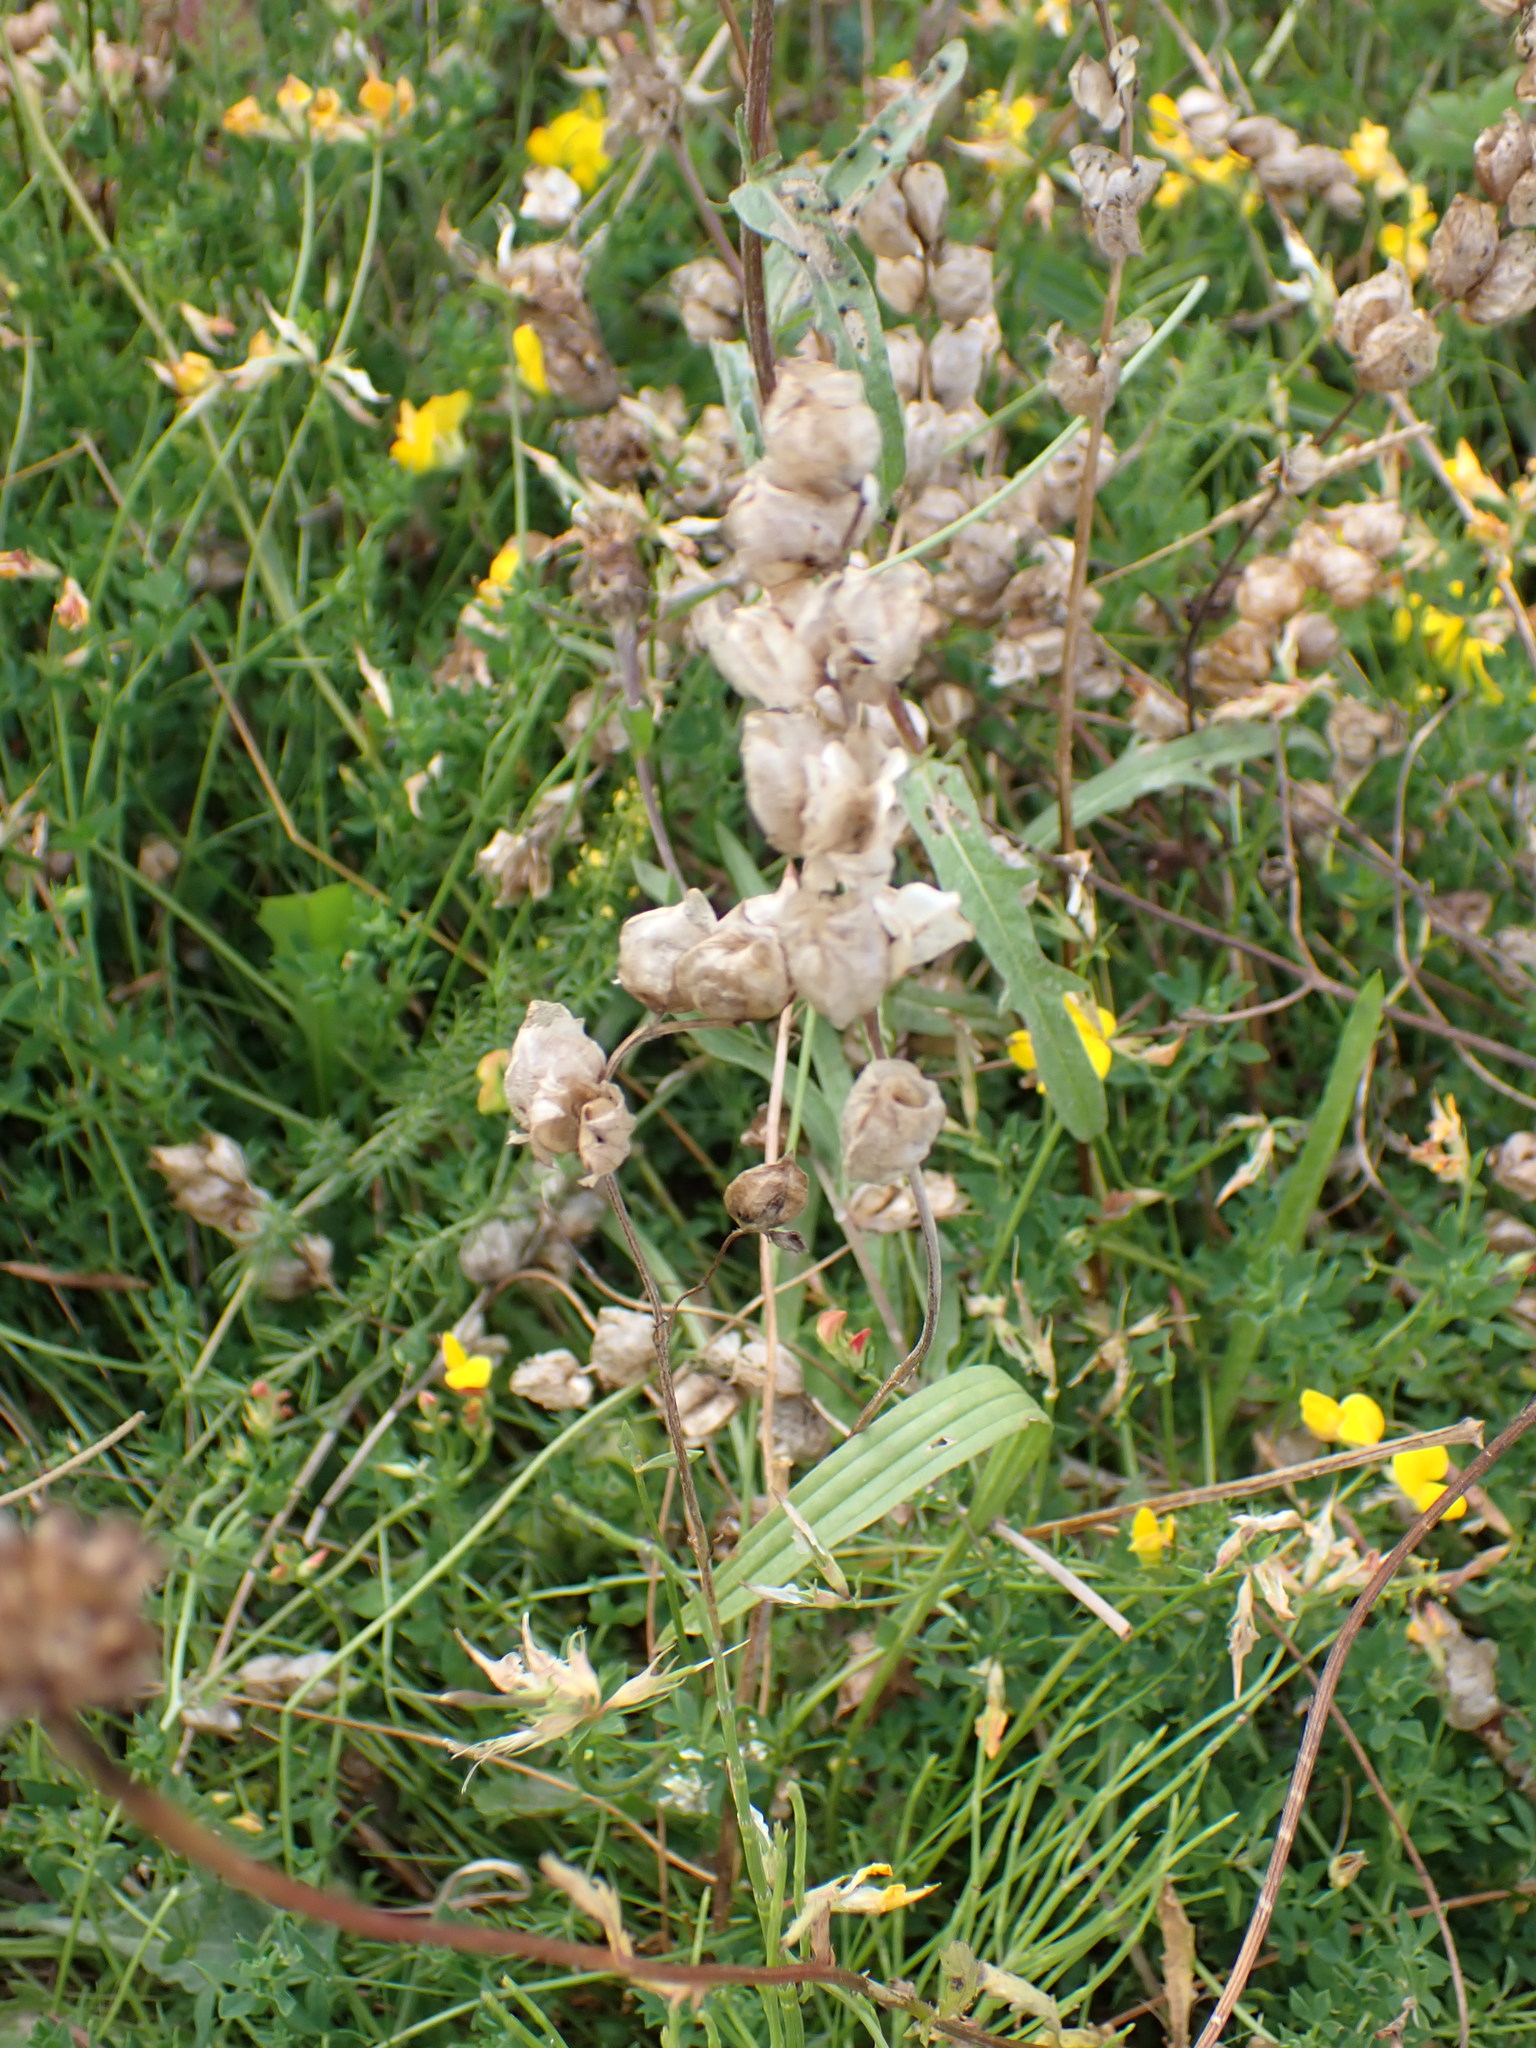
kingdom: Plantae
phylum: Tracheophyta
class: Magnoliopsida
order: Lamiales
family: Orobanchaceae
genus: Rhinanthus
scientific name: Rhinanthus minor
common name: Yellow-rattle
